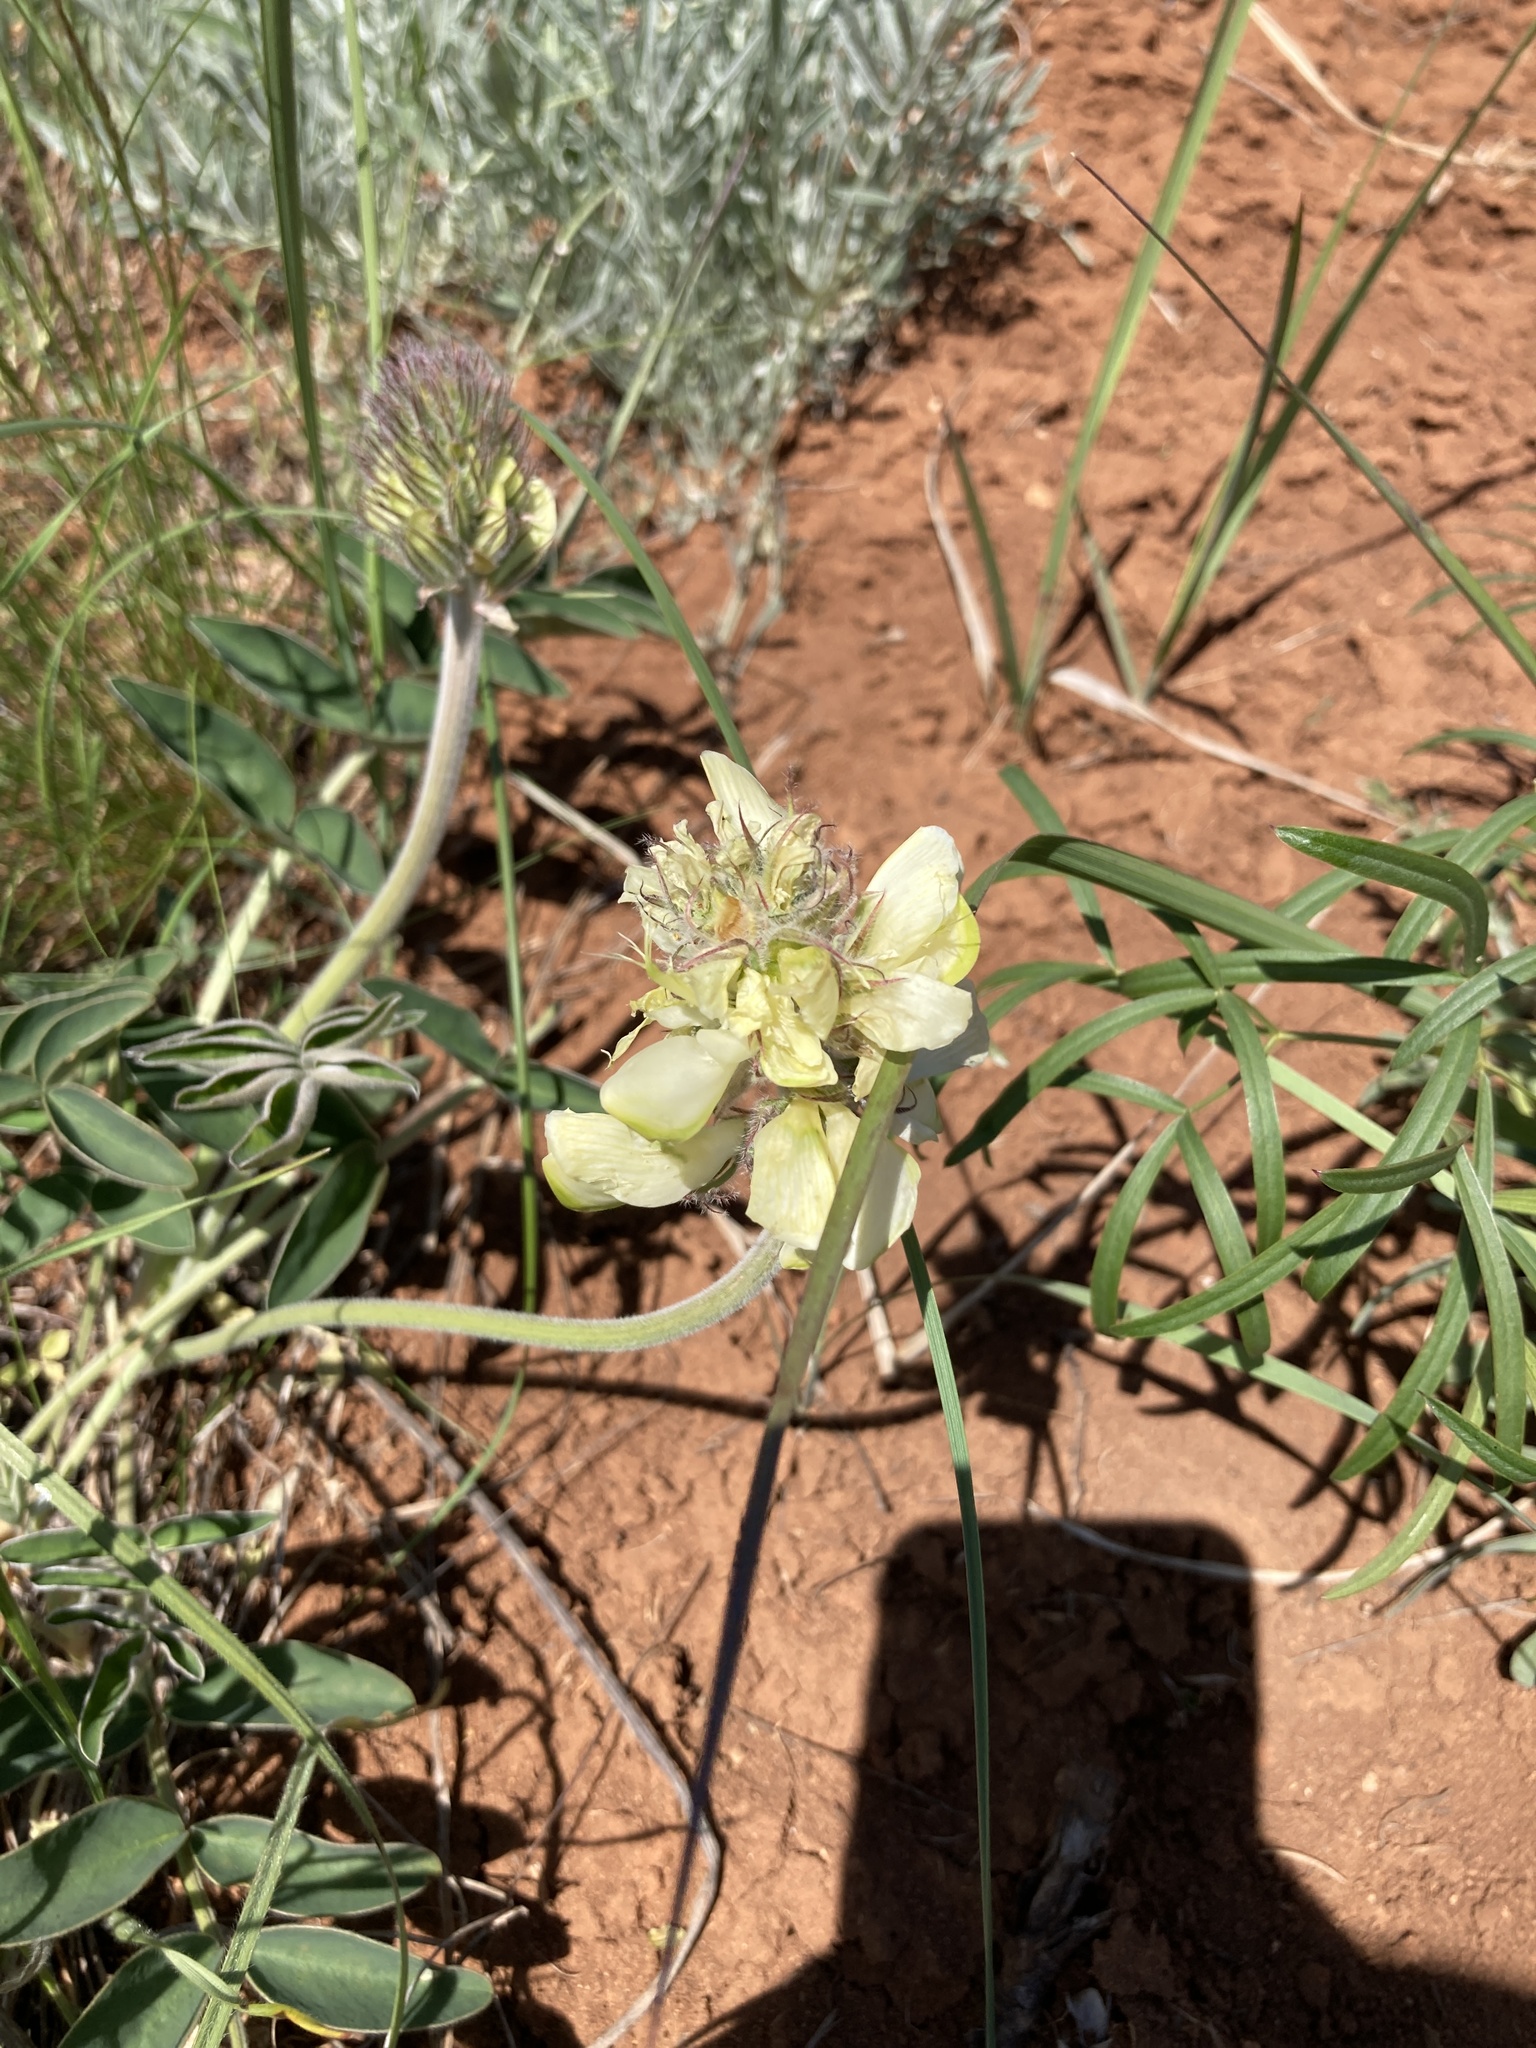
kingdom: Plantae
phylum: Tracheophyta
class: Magnoliopsida
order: Fabales
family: Fabaceae
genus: Hedysarum
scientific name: Hedysarum grandiflorum
